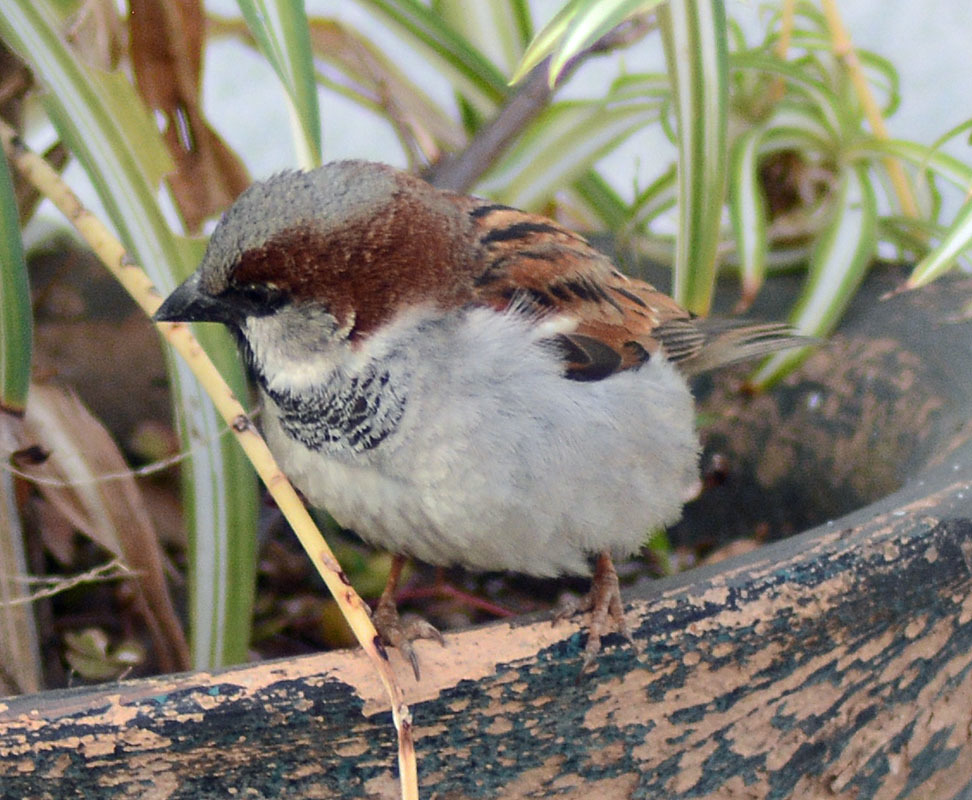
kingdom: Animalia
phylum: Chordata
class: Aves
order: Passeriformes
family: Passeridae
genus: Passer
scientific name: Passer domesticus
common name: House sparrow
